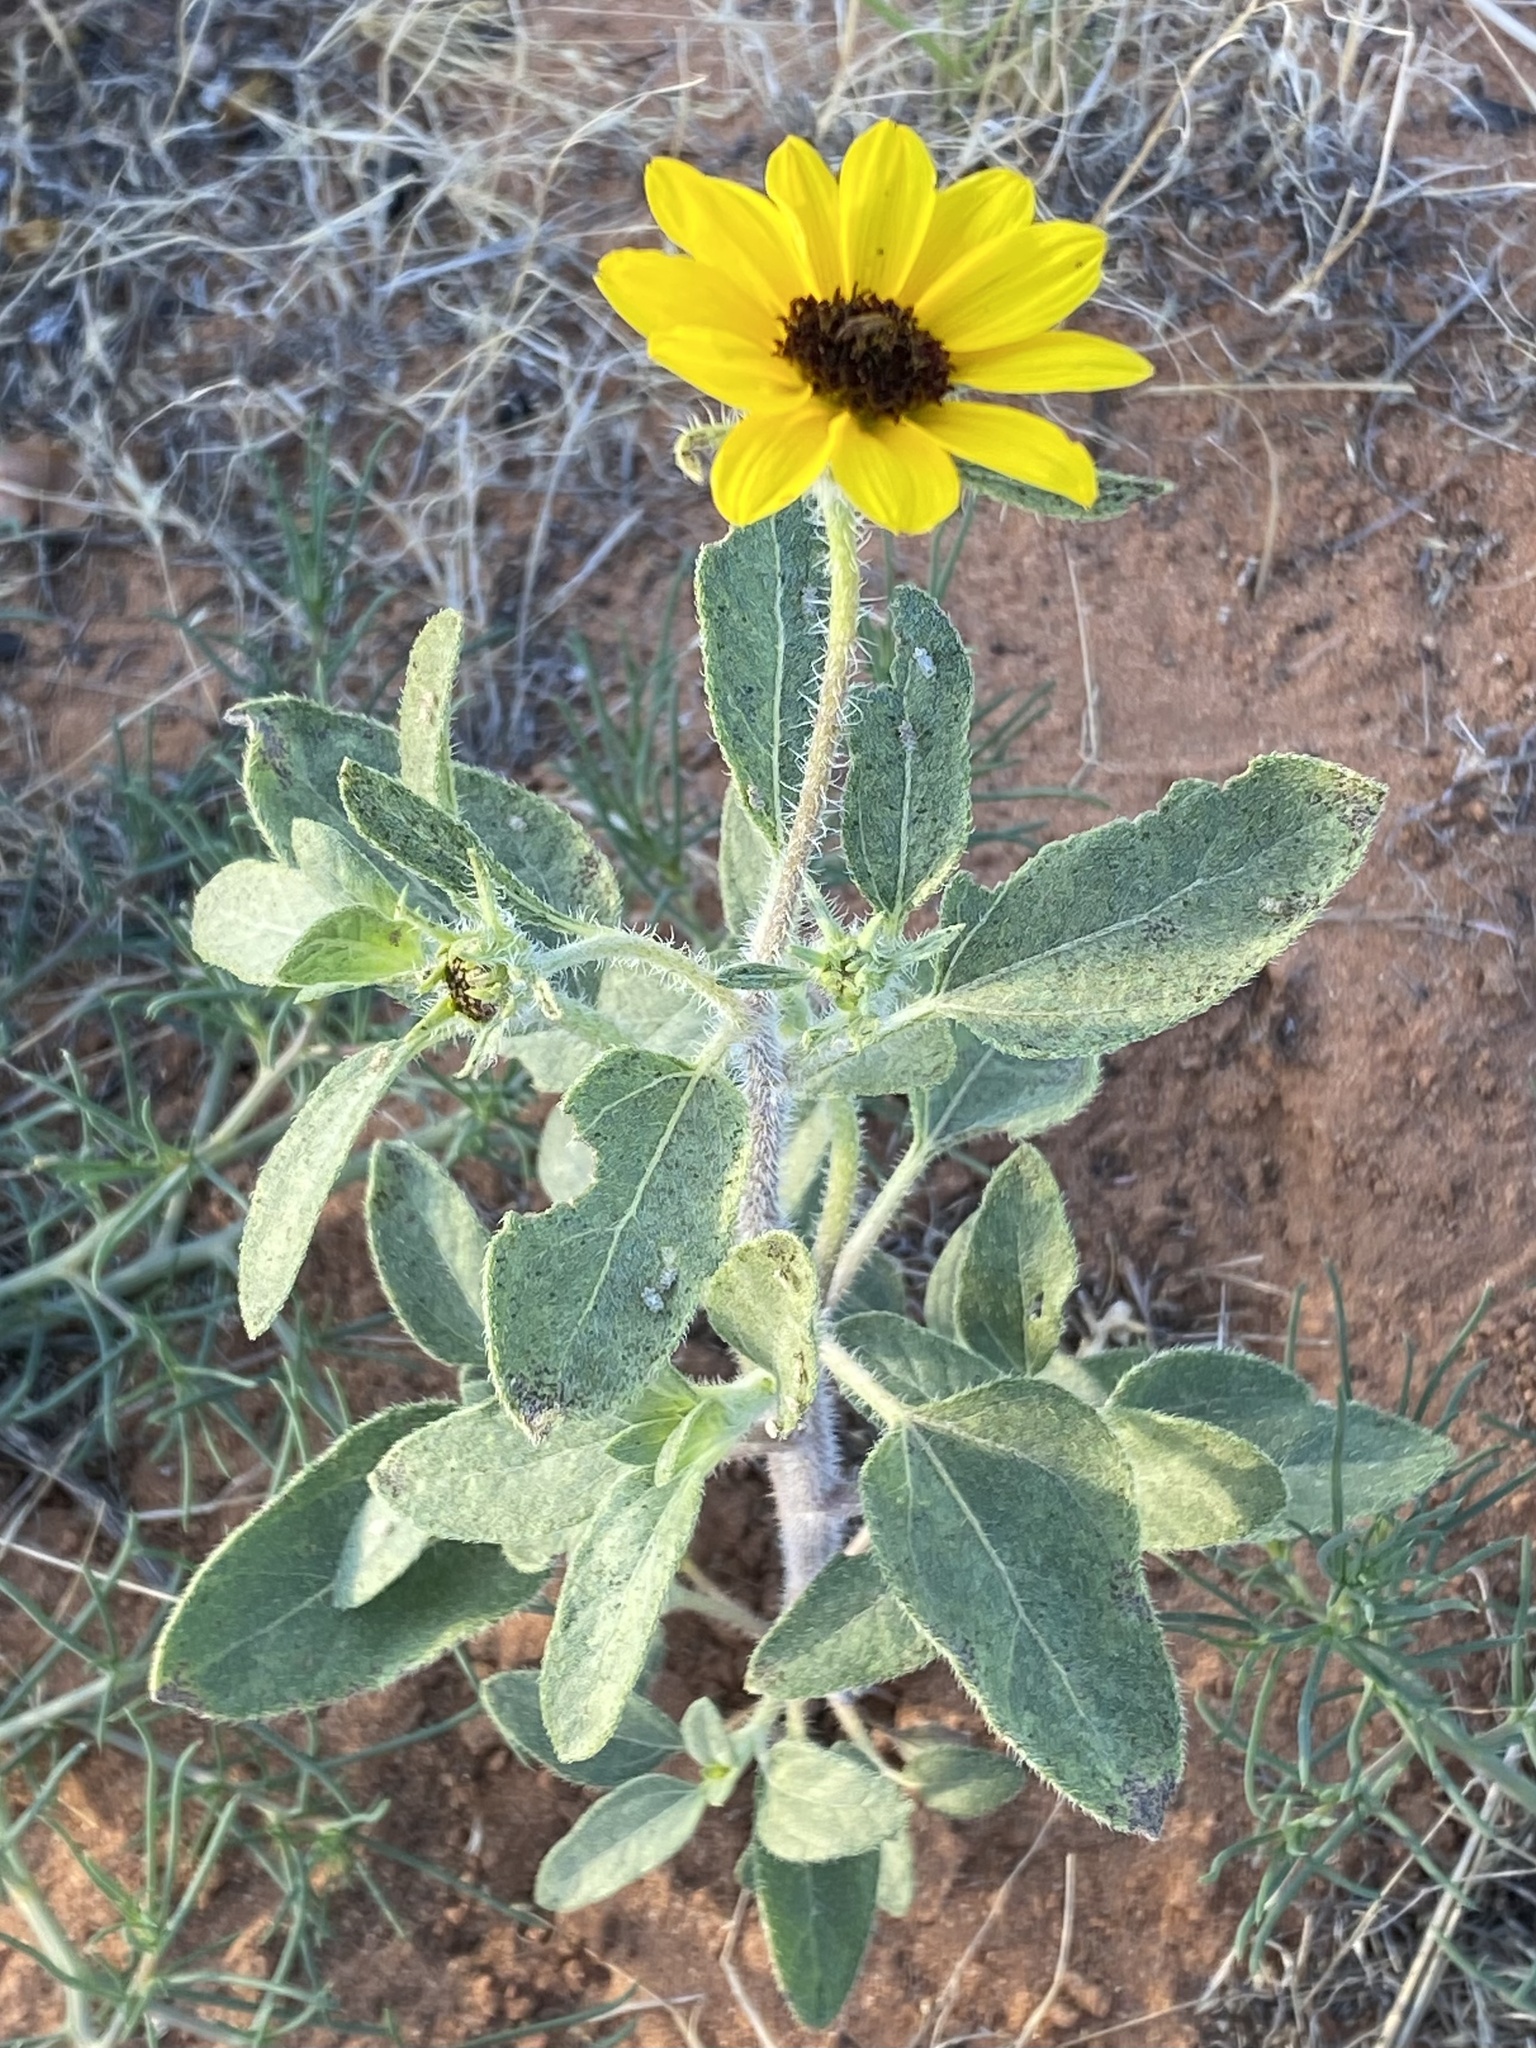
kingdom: Fungi
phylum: Basidiomycota
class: Pucciniomycetes
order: Pucciniales
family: Pucciniaceae
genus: Puccinia
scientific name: Puccinia helianthi-mollis
